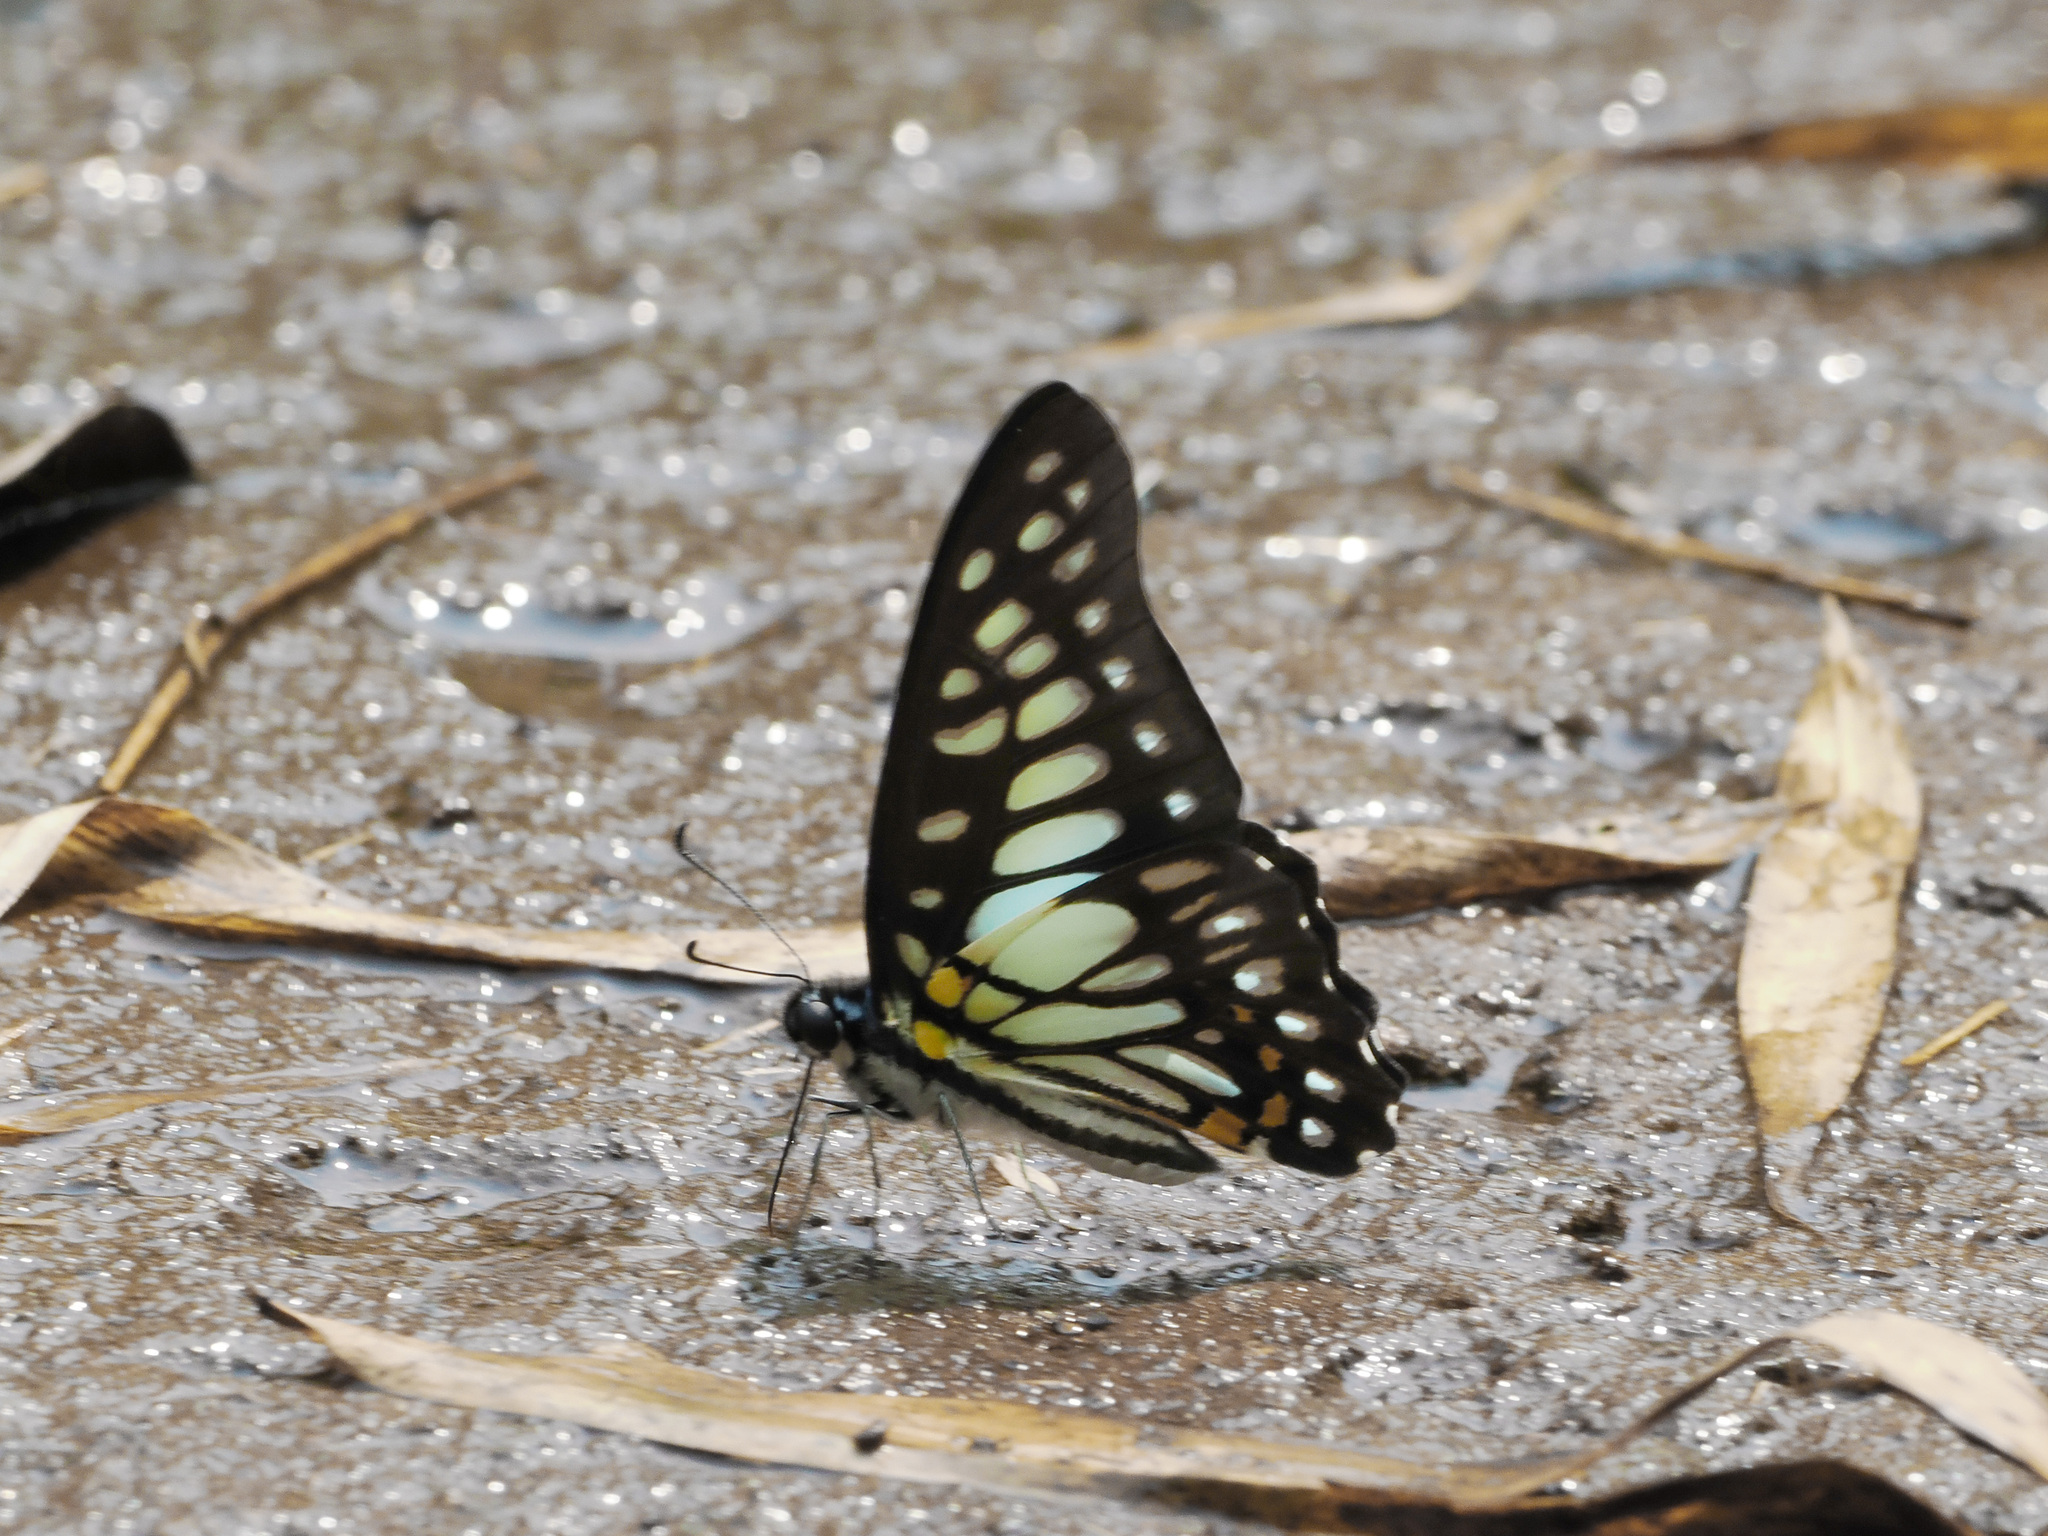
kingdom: Animalia
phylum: Arthropoda
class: Insecta
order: Lepidoptera
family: Papilionidae
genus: Graphium
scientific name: Graphium chironides
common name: Veined jay
